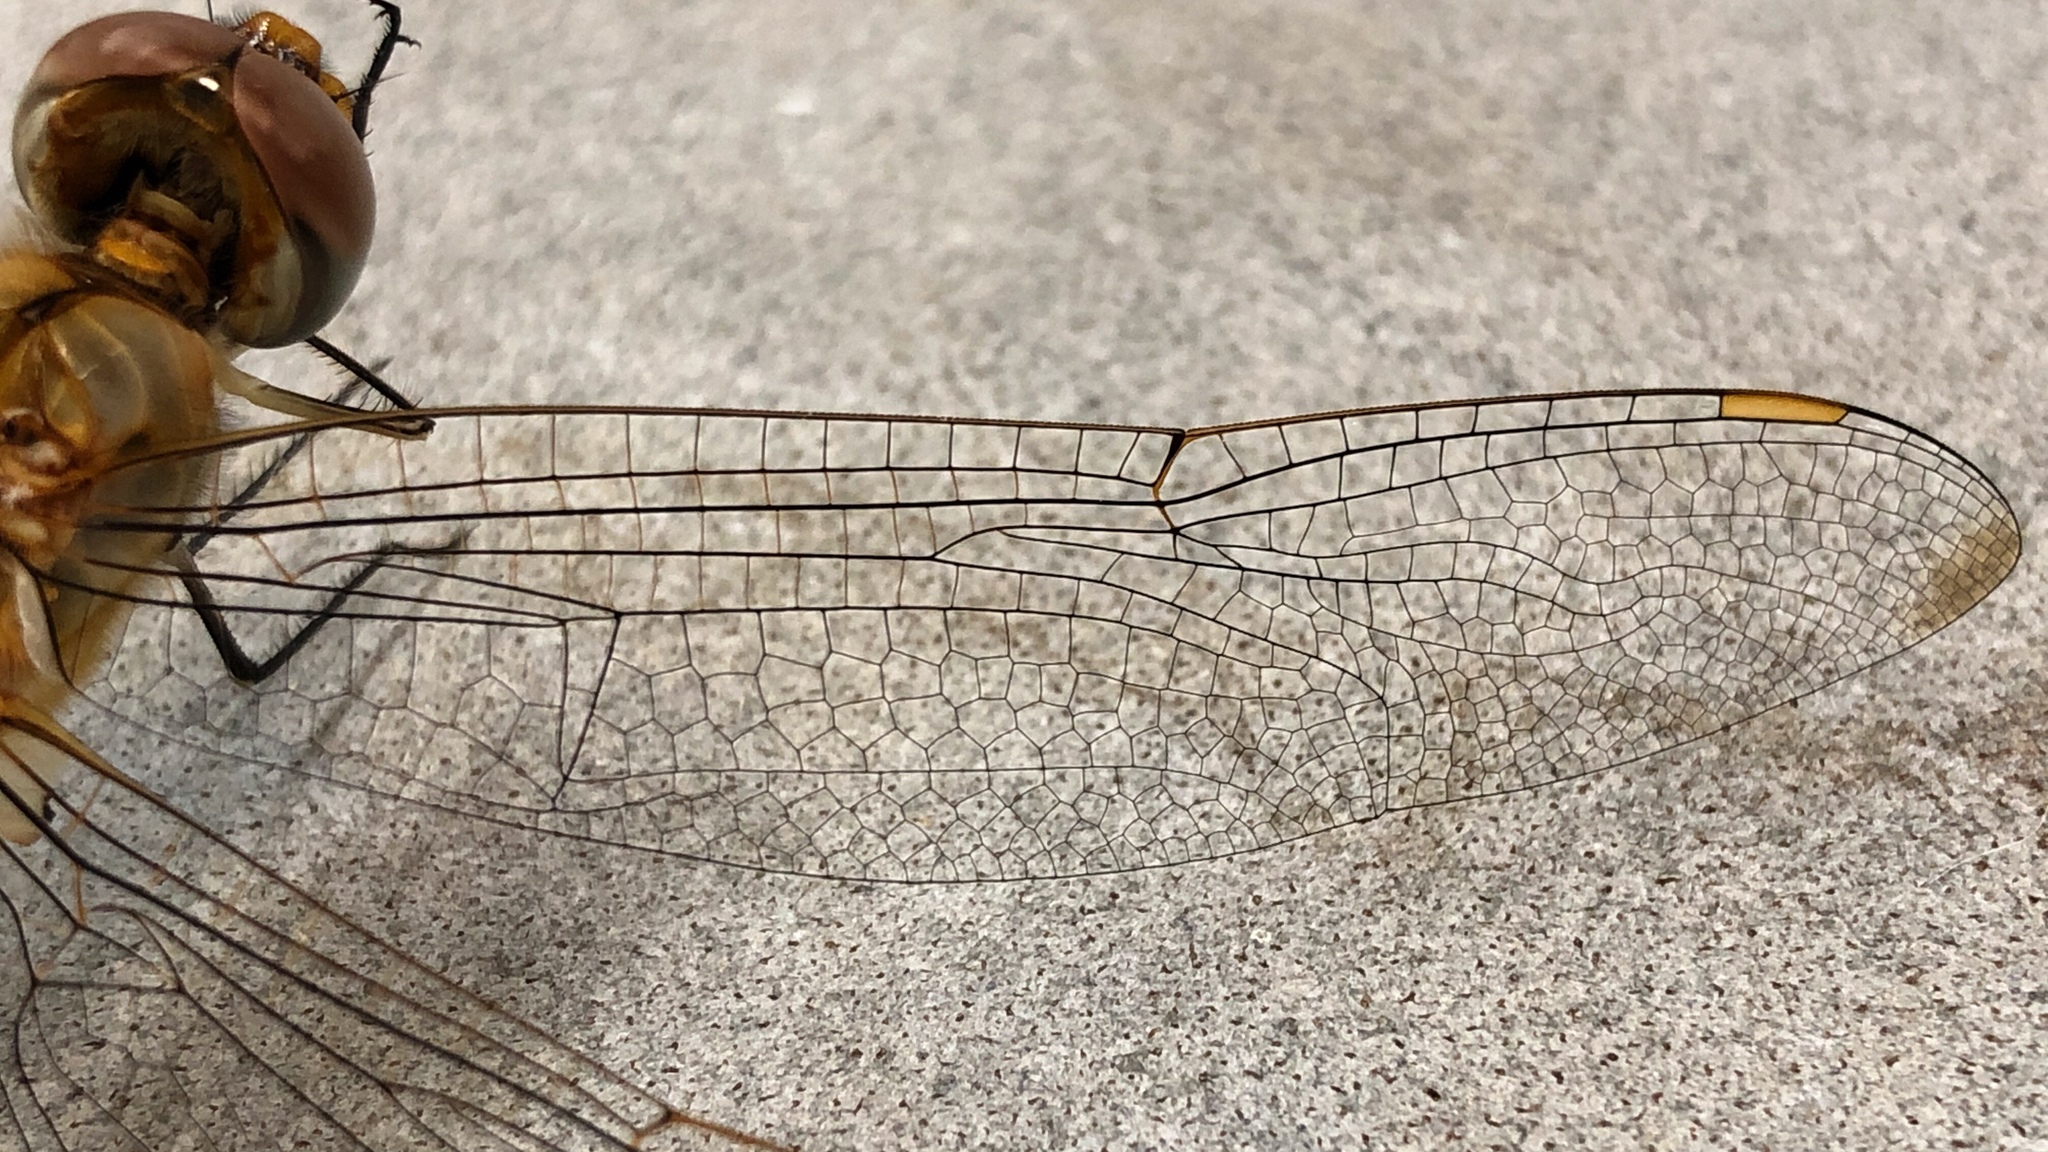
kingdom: Animalia
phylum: Arthropoda
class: Insecta
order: Odonata
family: Libellulidae
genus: Pantala
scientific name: Pantala flavescens
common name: Wandering glider
